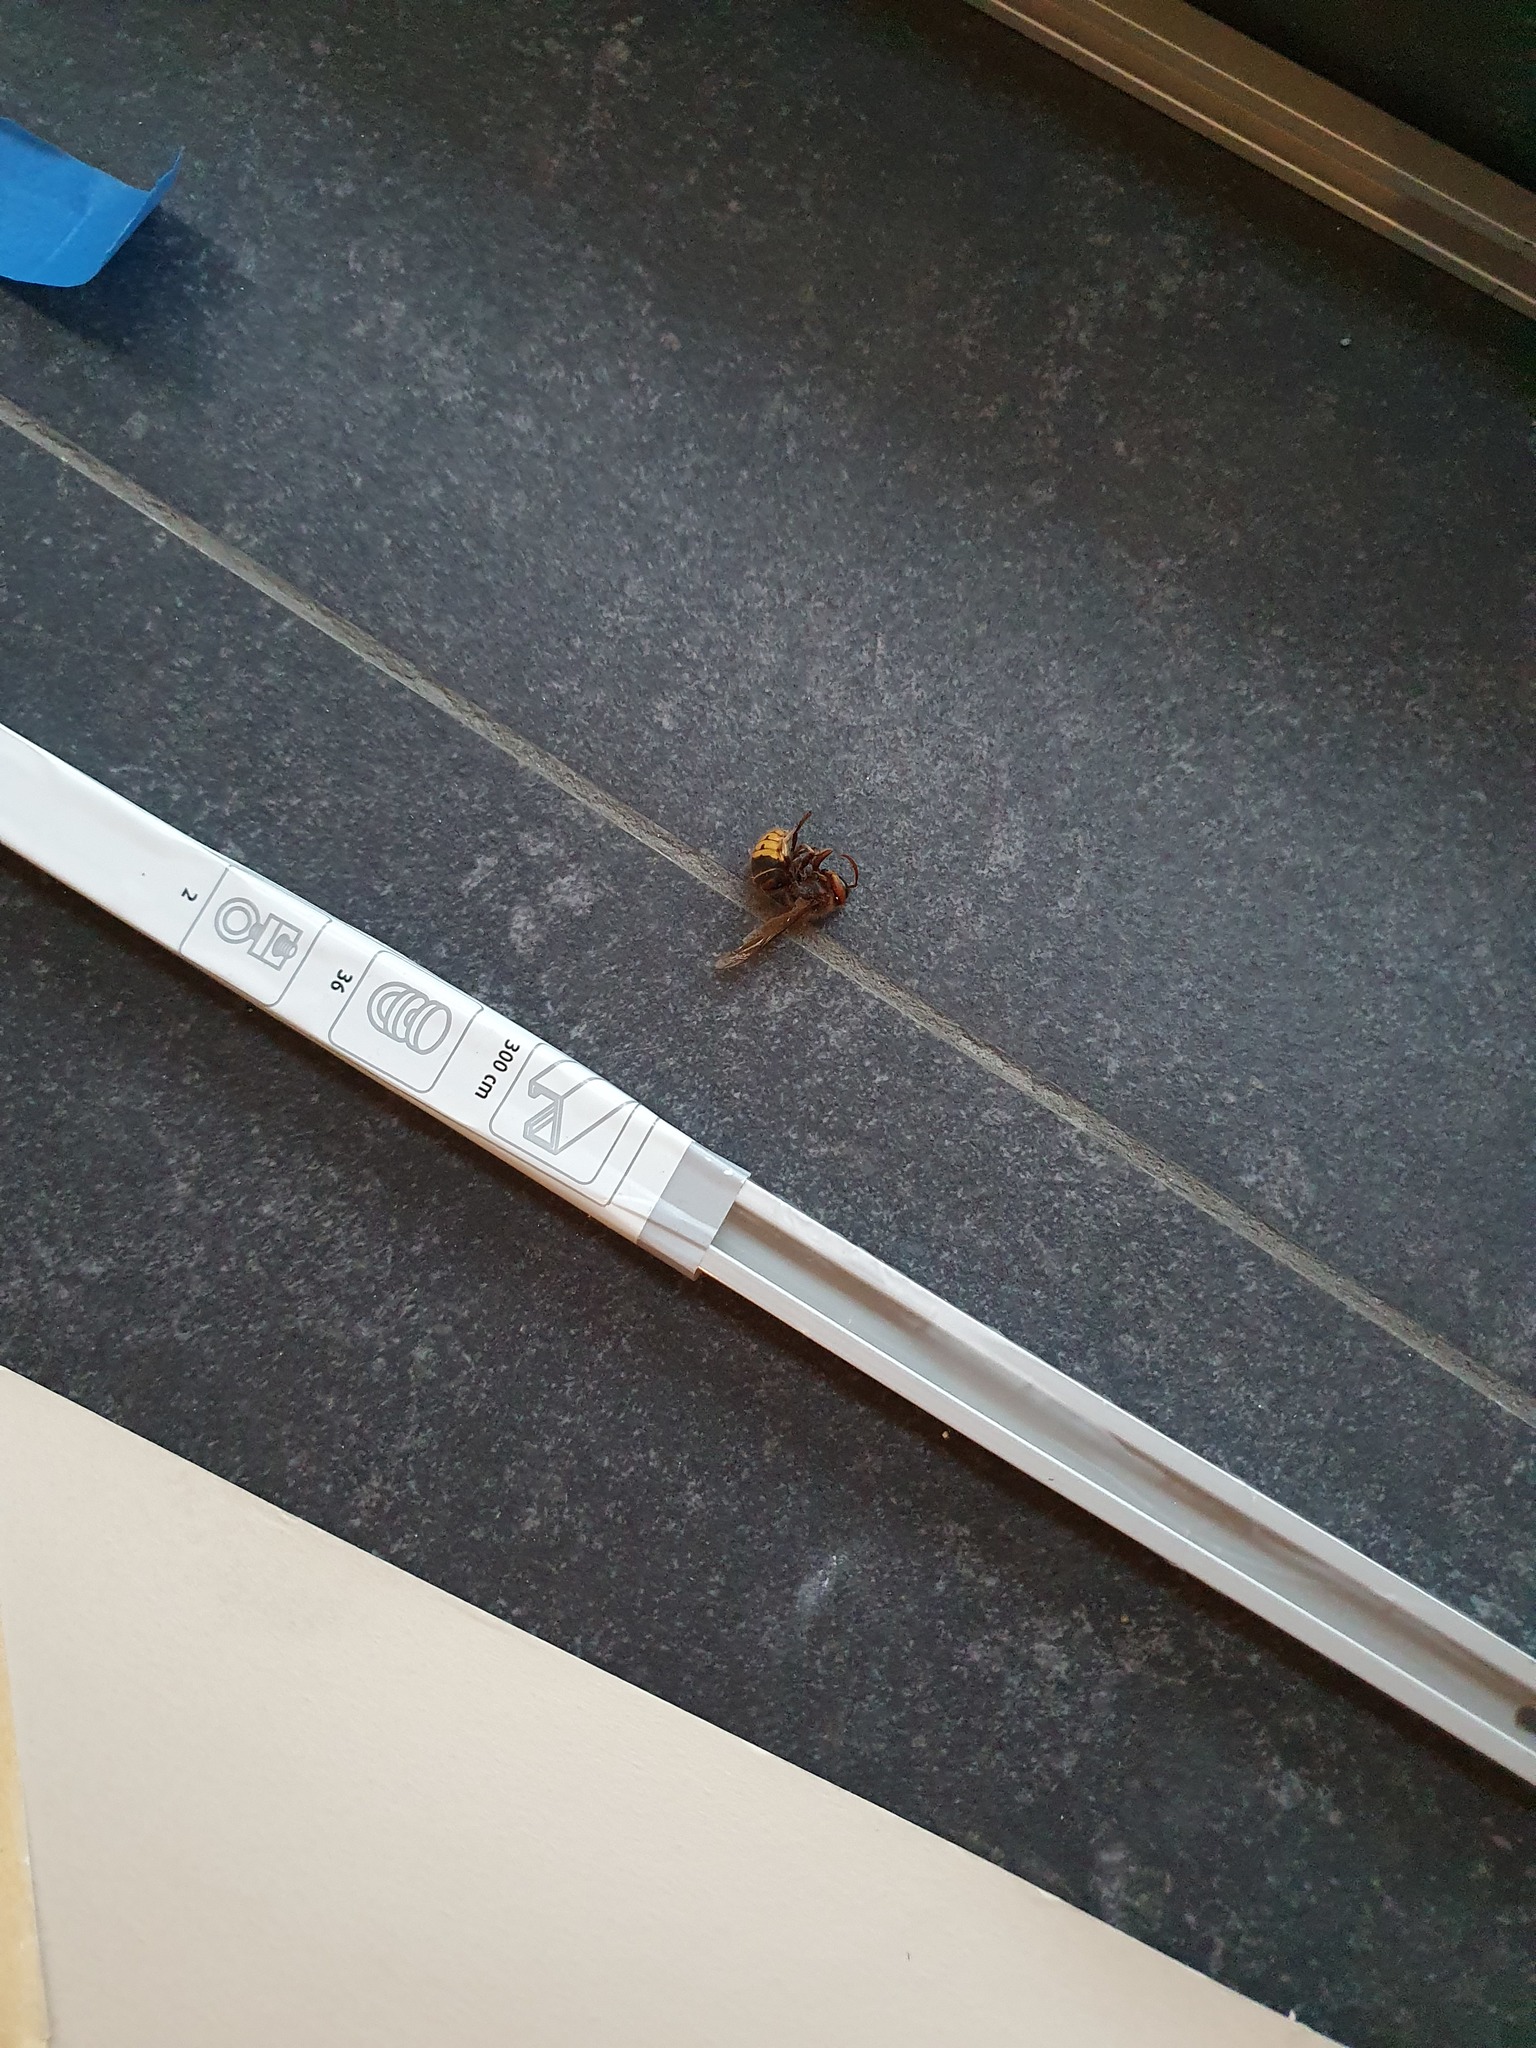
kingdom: Animalia
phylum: Arthropoda
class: Insecta
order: Hymenoptera
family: Vespidae
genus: Vespa
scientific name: Vespa crabro
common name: Hornet
